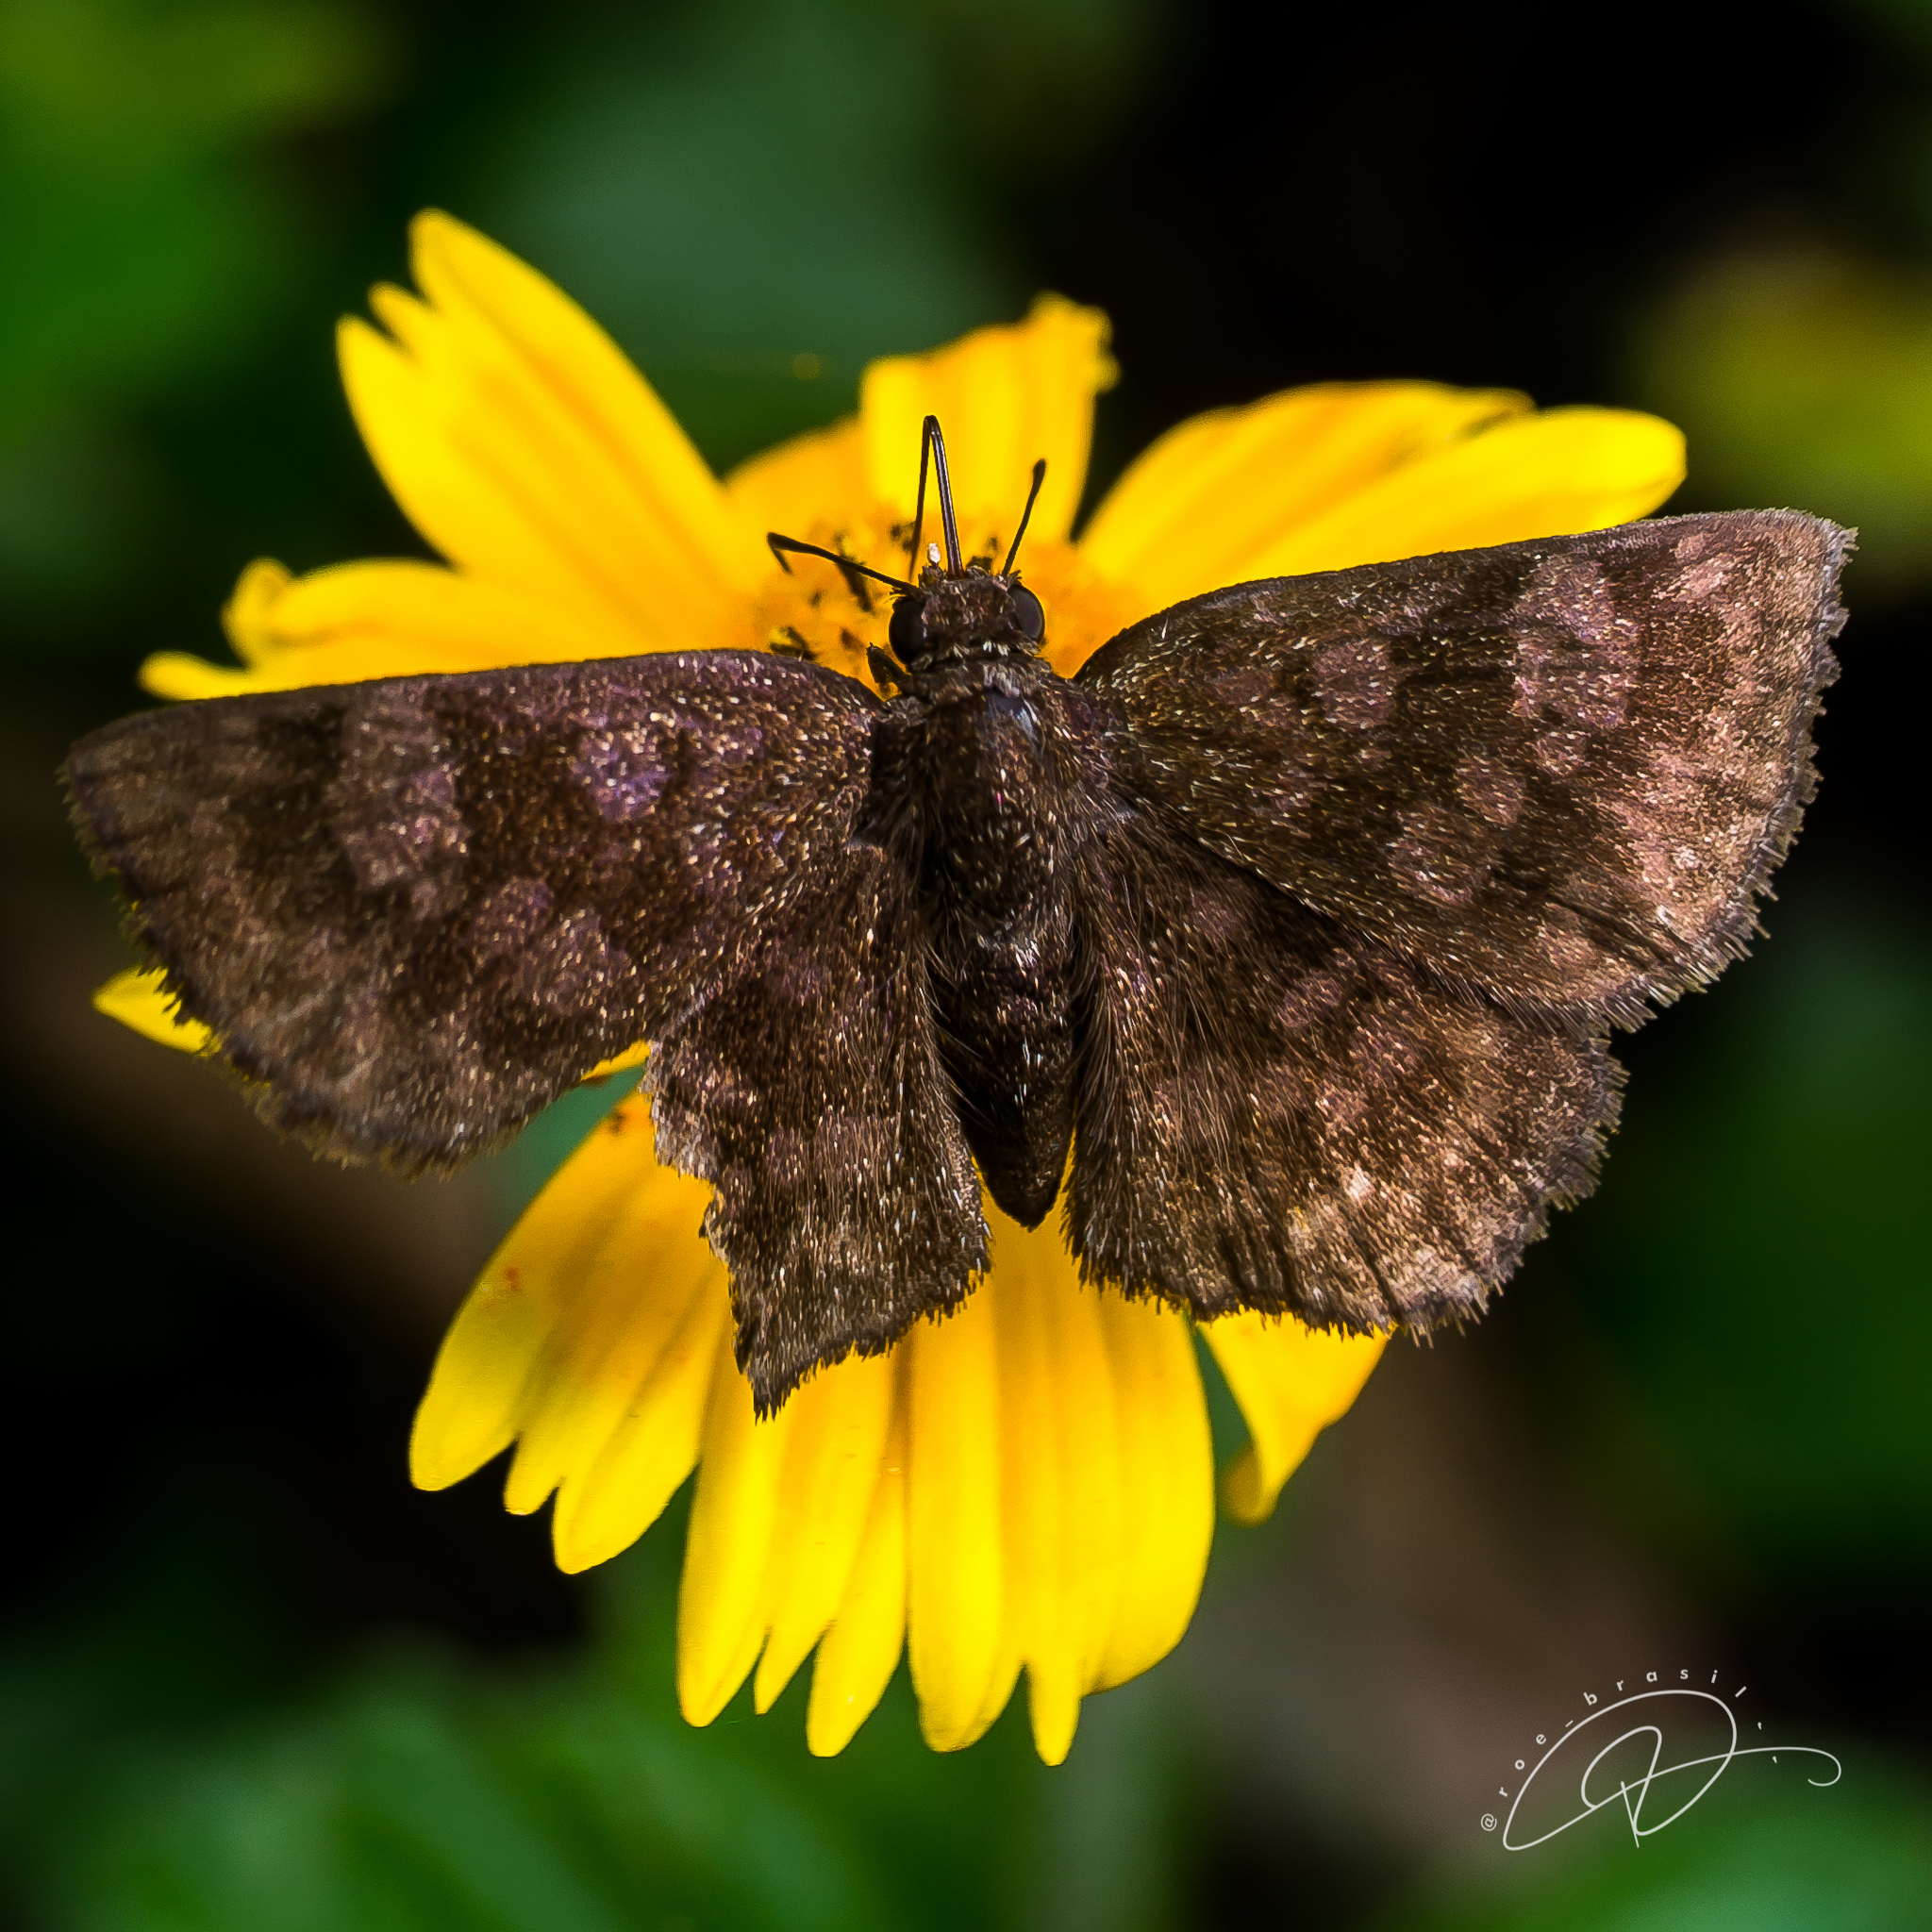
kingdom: Animalia
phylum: Arthropoda
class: Insecta
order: Lepidoptera
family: Hesperiidae
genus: Viola
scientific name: Viola violella
